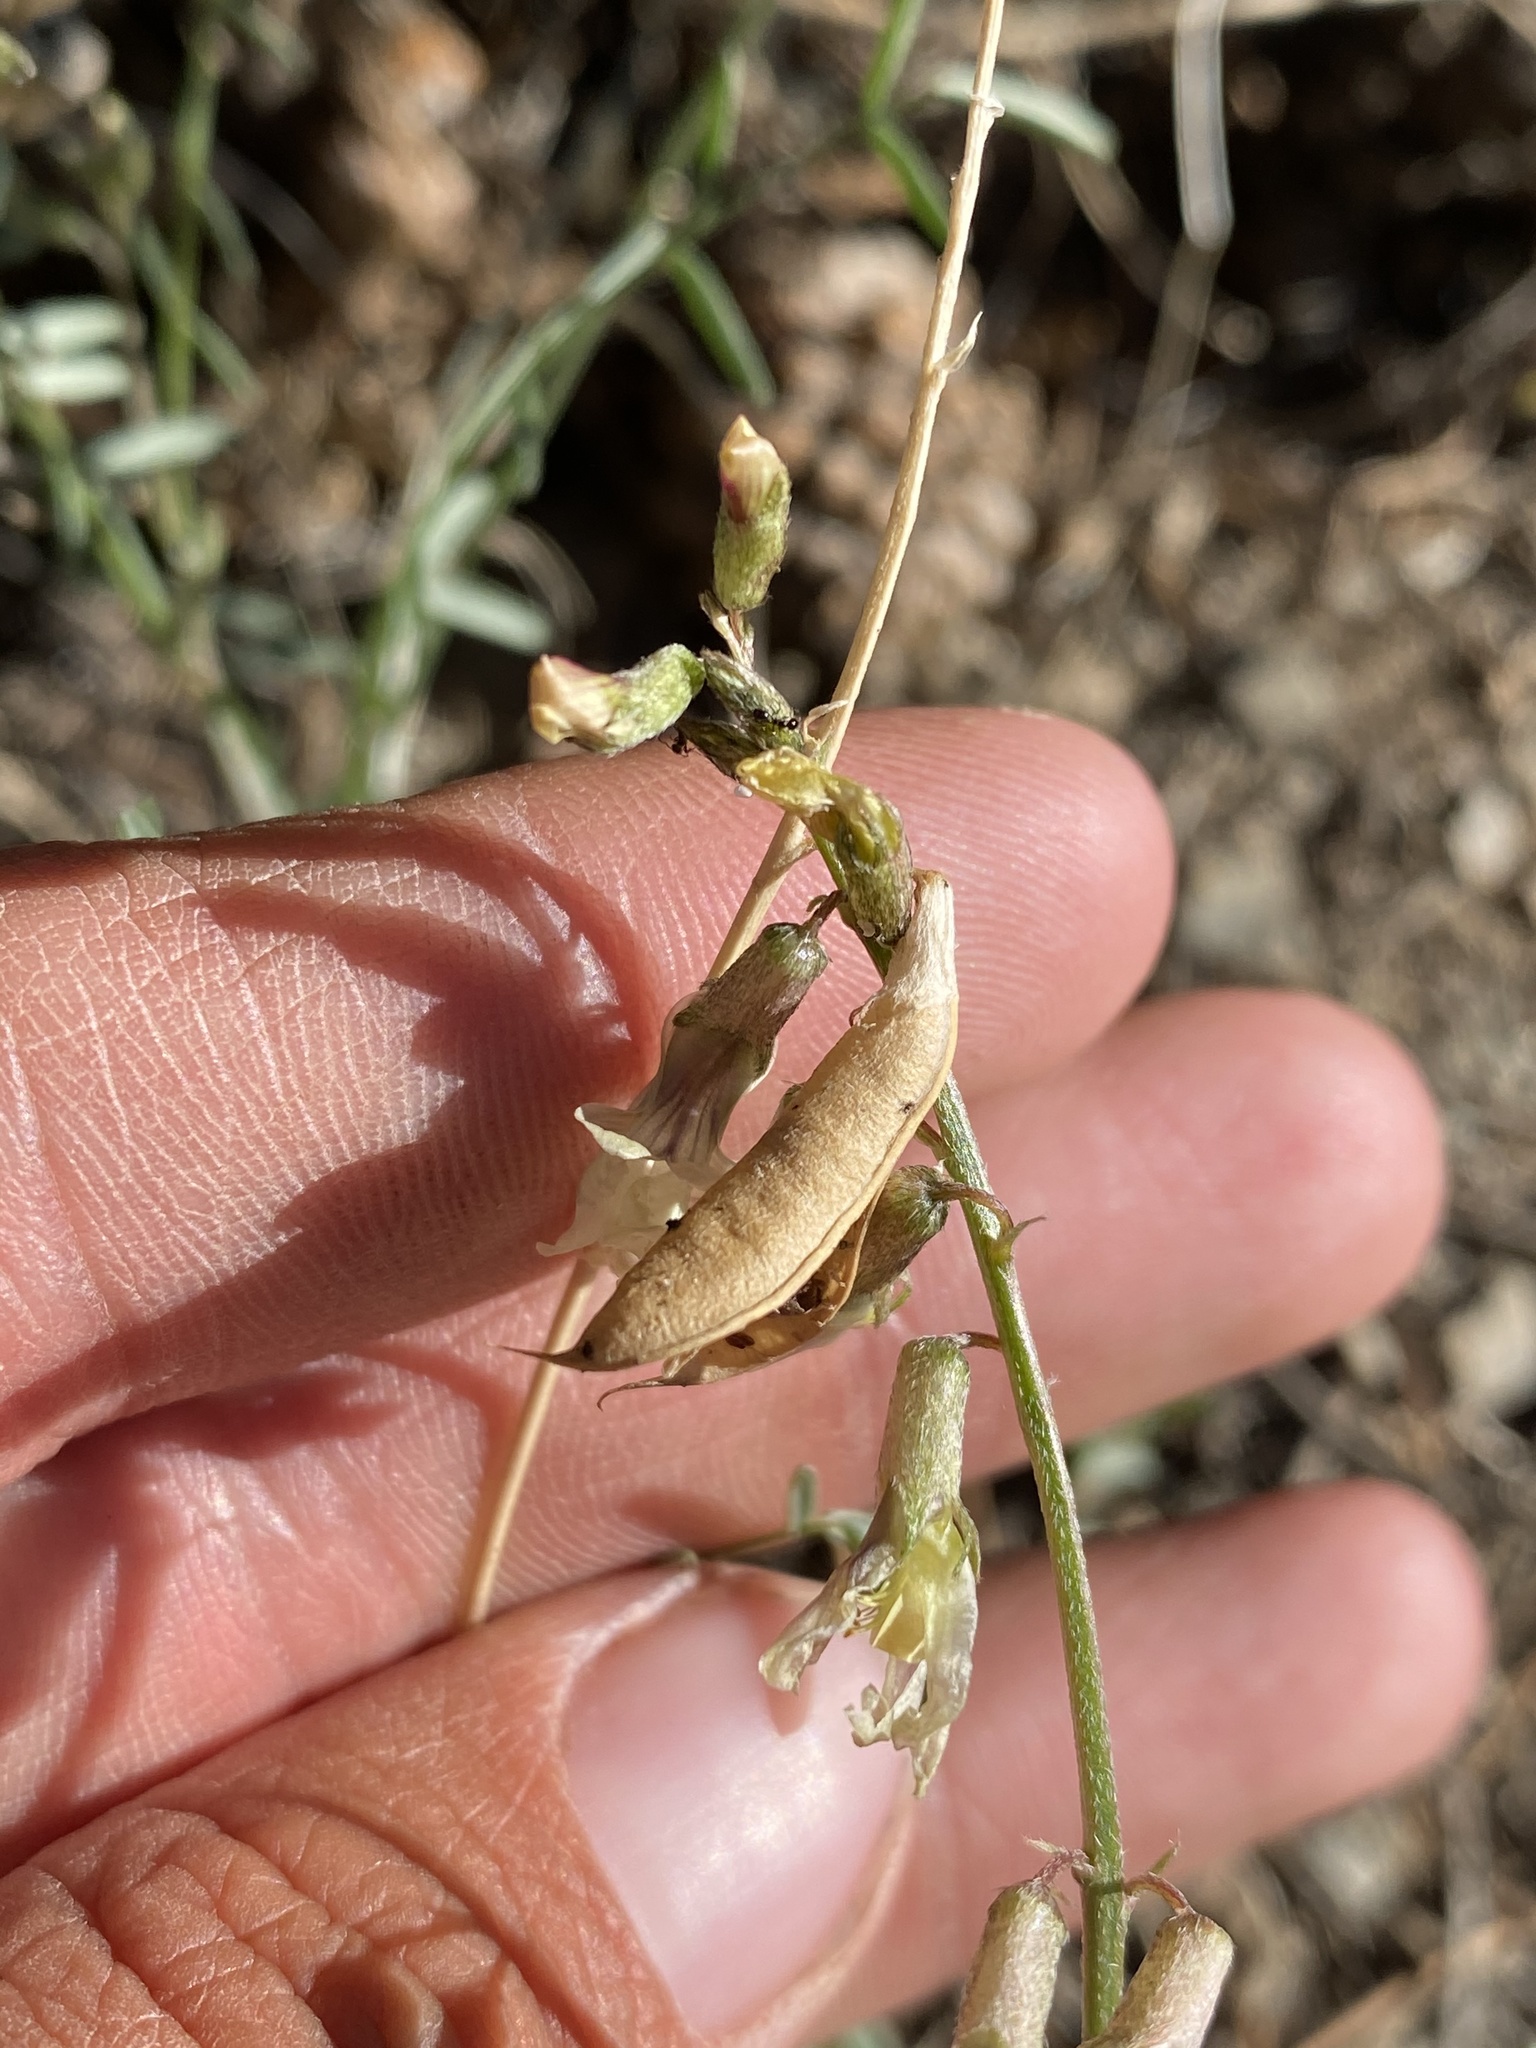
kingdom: Plantae
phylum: Tracheophyta
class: Magnoliopsida
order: Fabales
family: Fabaceae
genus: Astragalus
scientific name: Astragalus atratus
